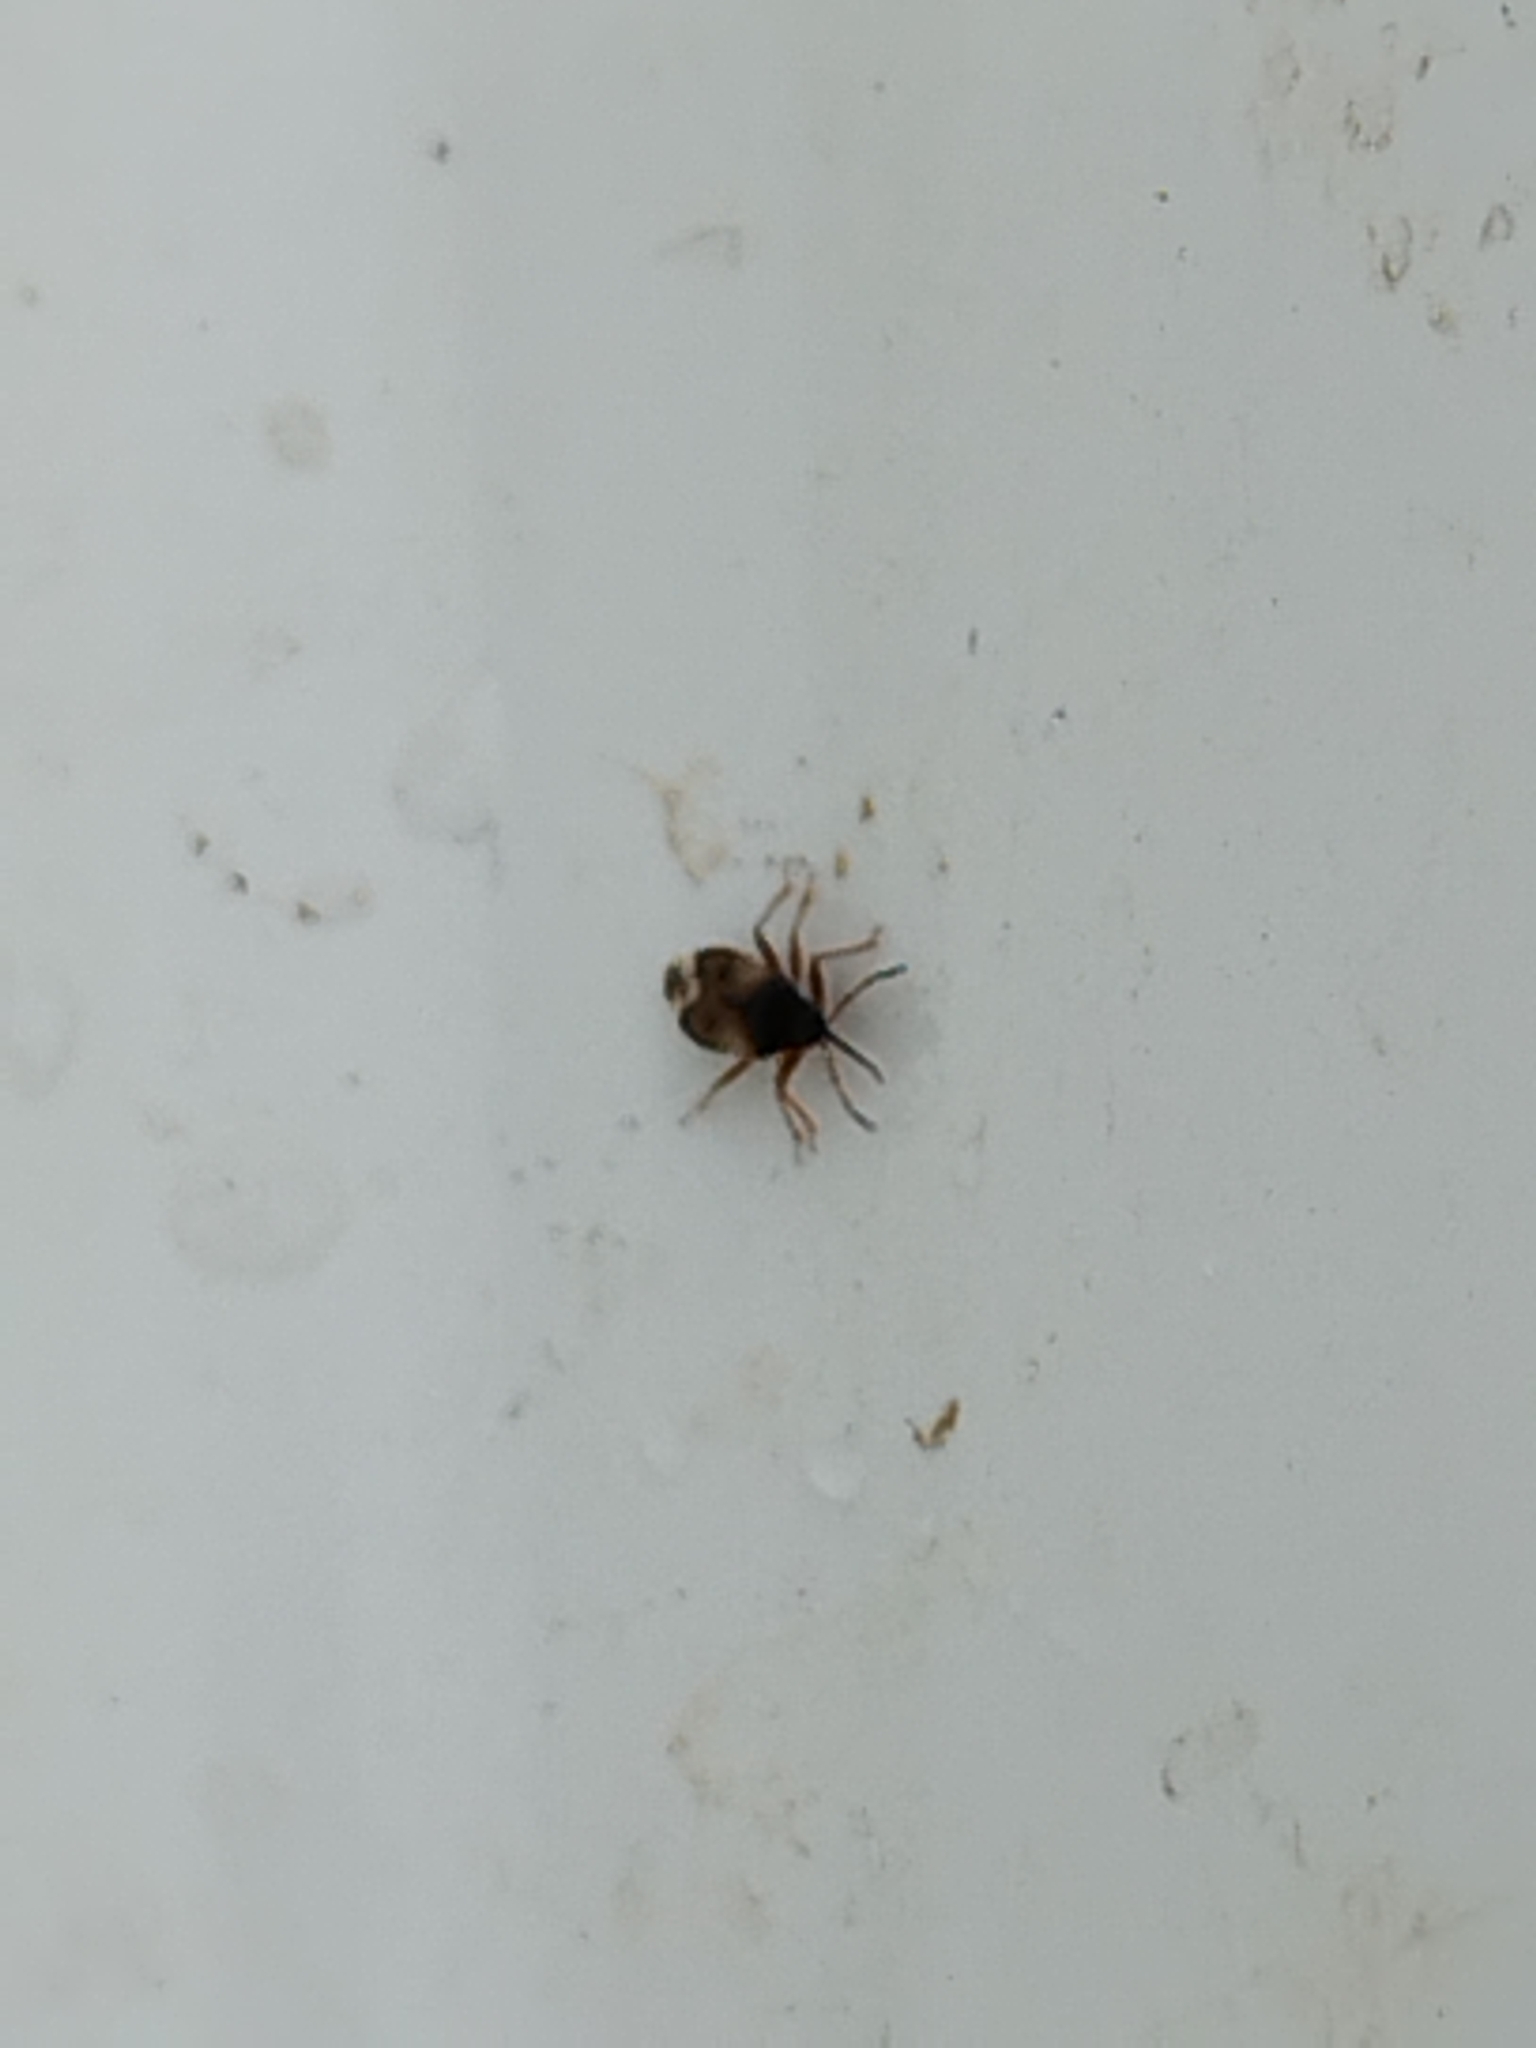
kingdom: Animalia
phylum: Arthropoda
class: Insecta
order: Hemiptera
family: Anthocoridae
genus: Anthocoris
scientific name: Anthocoris nemorum
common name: Minute pirate bug
